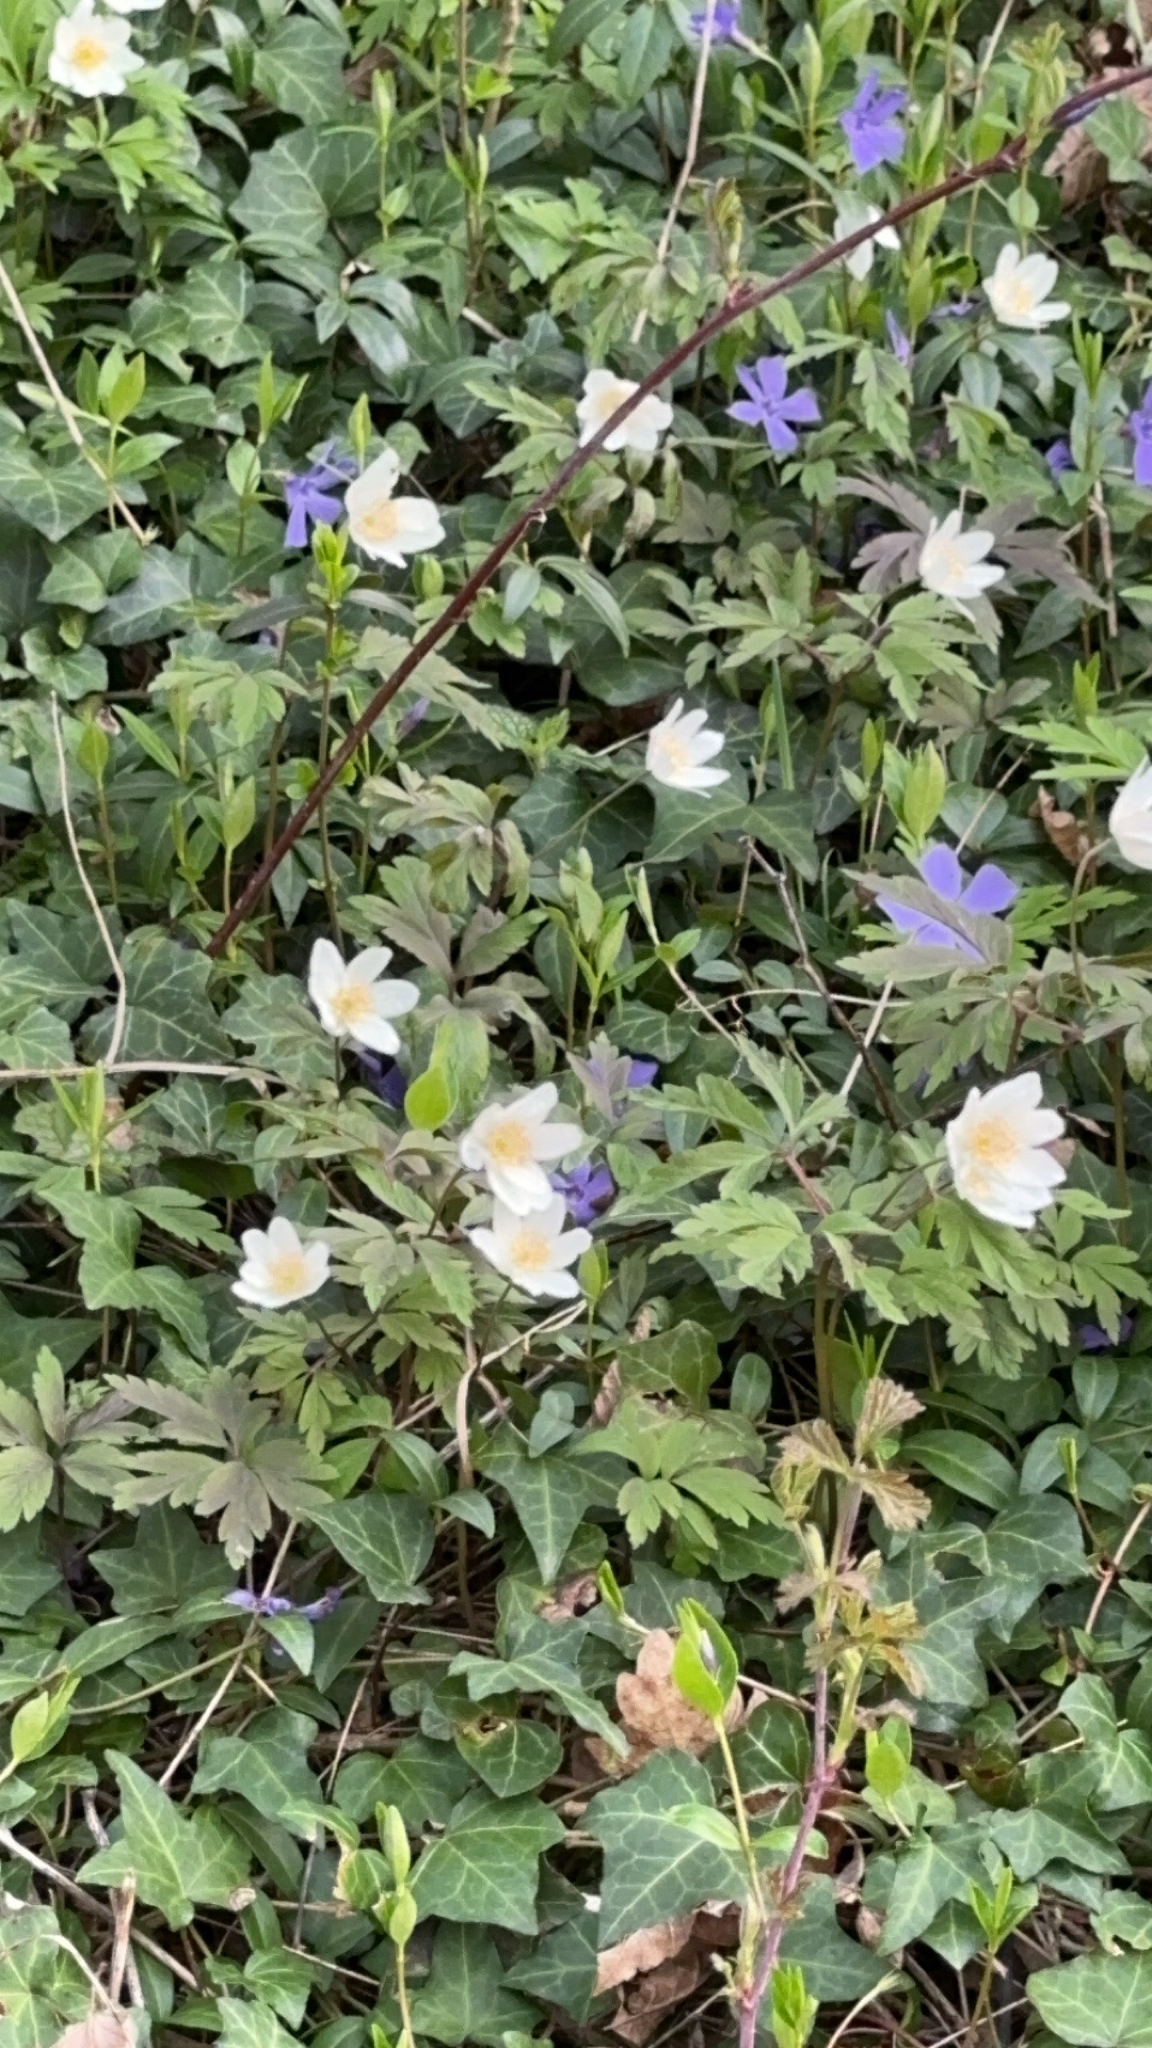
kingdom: Plantae
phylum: Tracheophyta
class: Magnoliopsida
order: Ranunculales
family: Ranunculaceae
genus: Anemone
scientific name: Anemone nemorosa
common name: Wood anemone
